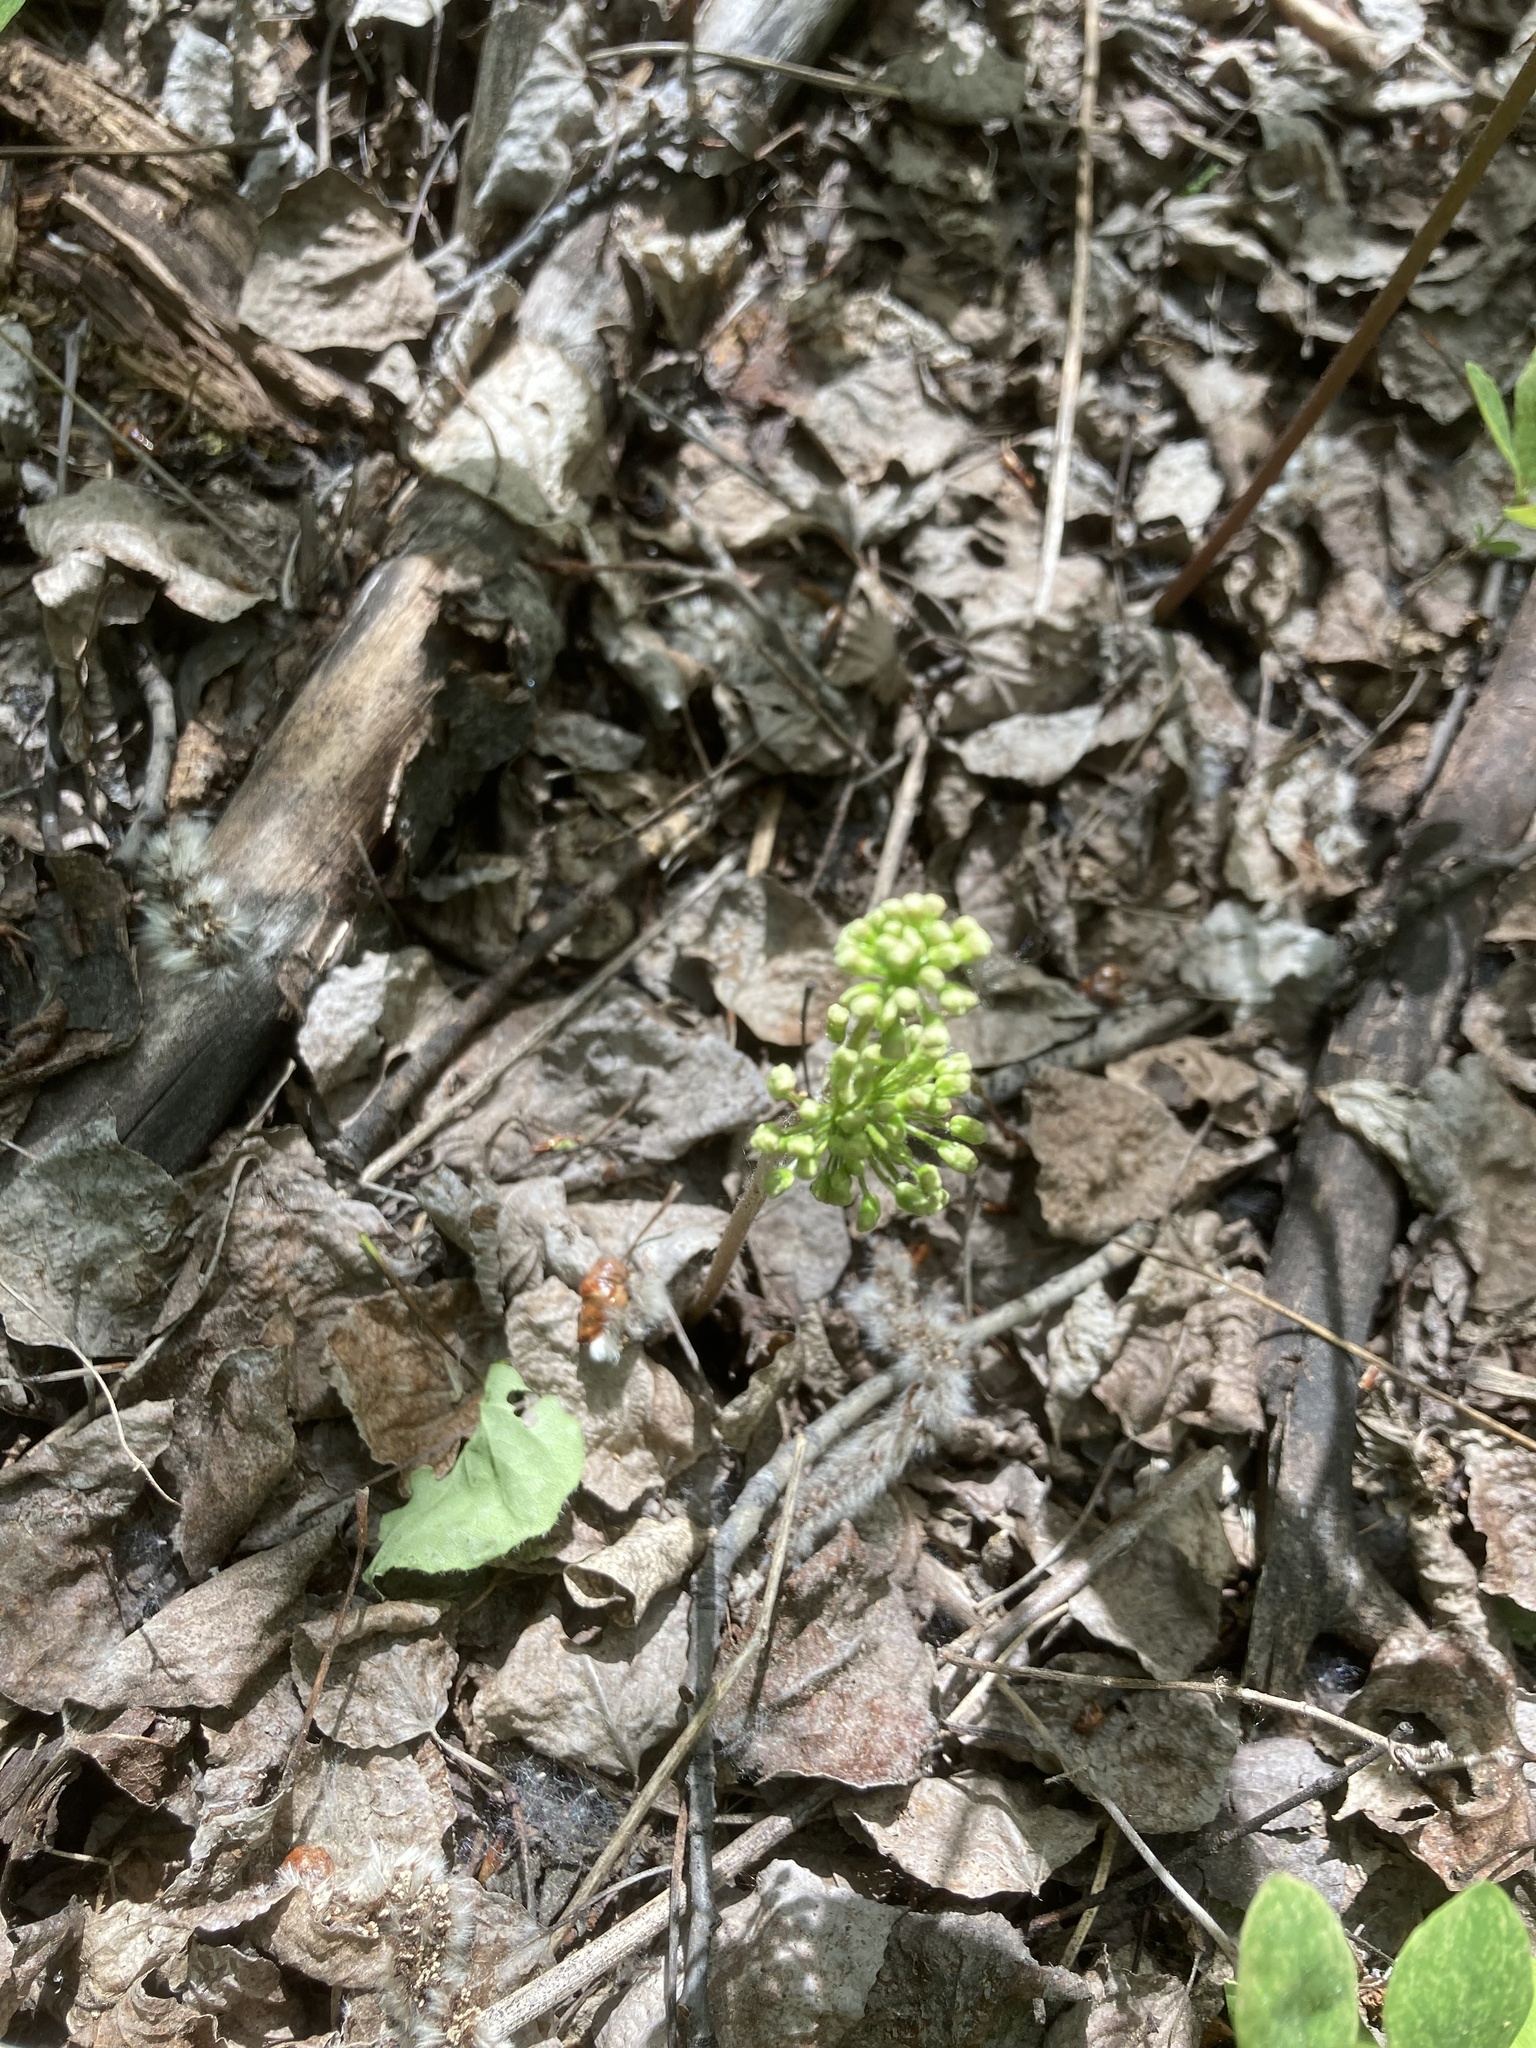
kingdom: Plantae
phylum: Tracheophyta
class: Magnoliopsida
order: Apiales
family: Araliaceae
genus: Aralia
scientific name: Aralia nudicaulis
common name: Wild sarsaparilla
